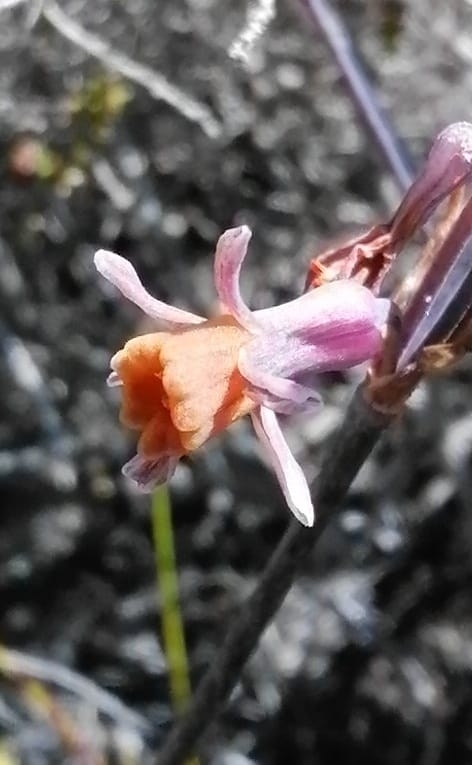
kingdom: Plantae
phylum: Tracheophyta
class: Liliopsida
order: Asparagales
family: Amaryllidaceae
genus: Tulbaghia
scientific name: Tulbaghia alliacea
